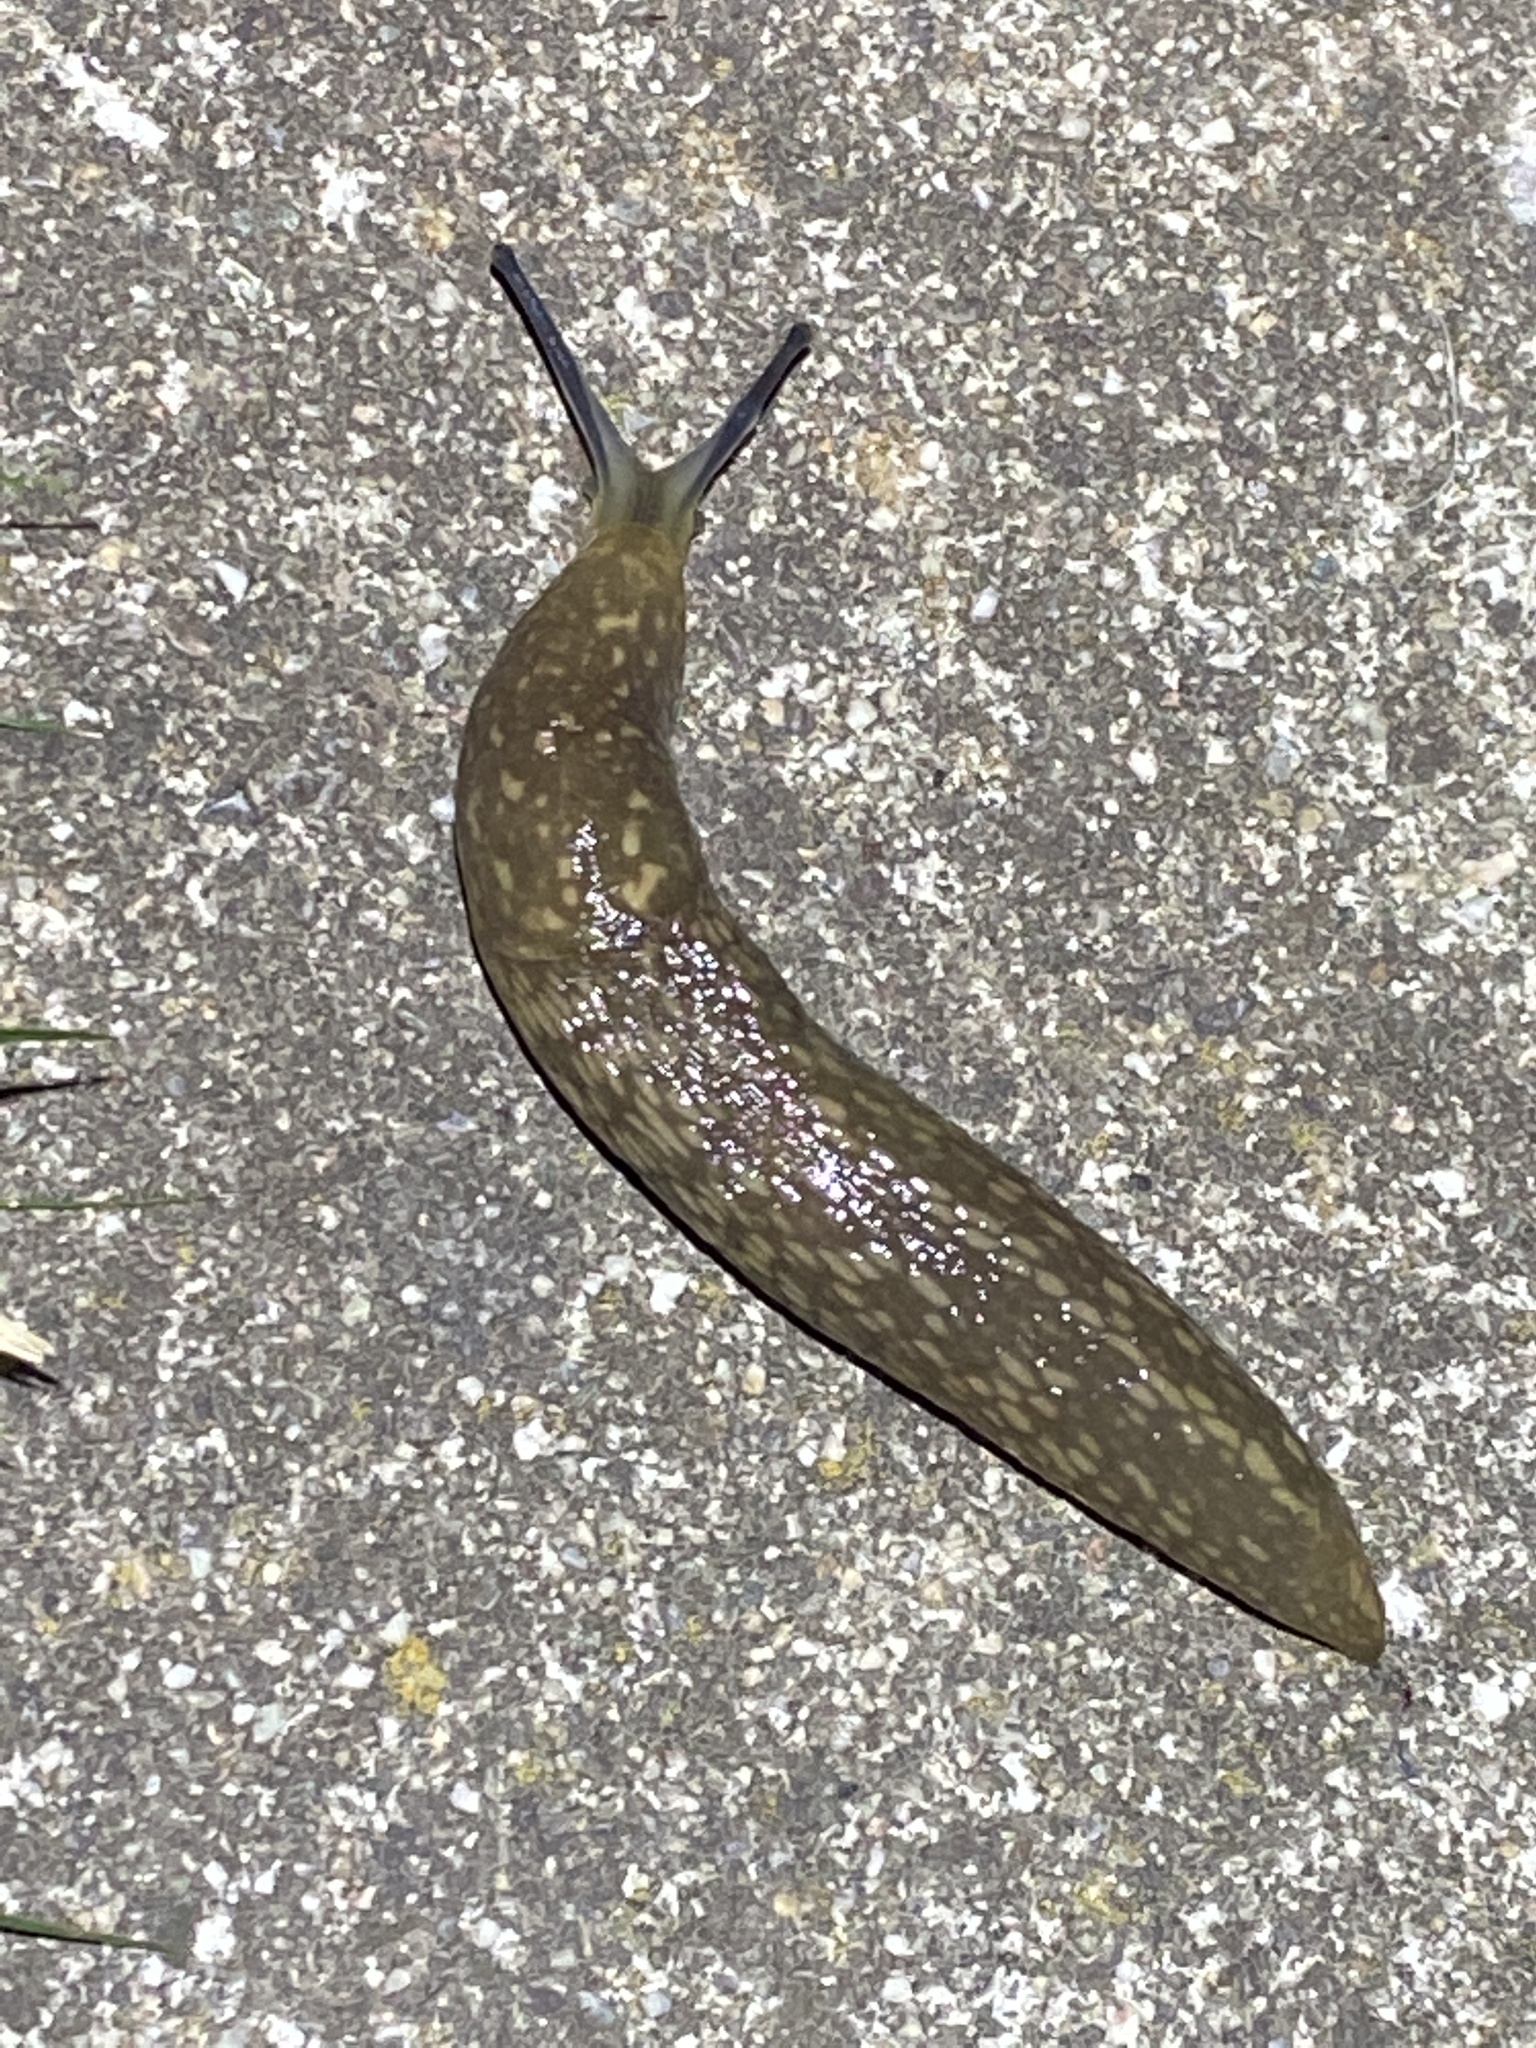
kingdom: Animalia
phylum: Mollusca
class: Gastropoda
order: Stylommatophora
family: Limacidae
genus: Limacus
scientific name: Limacus flavus
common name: Yellow gardenslug
